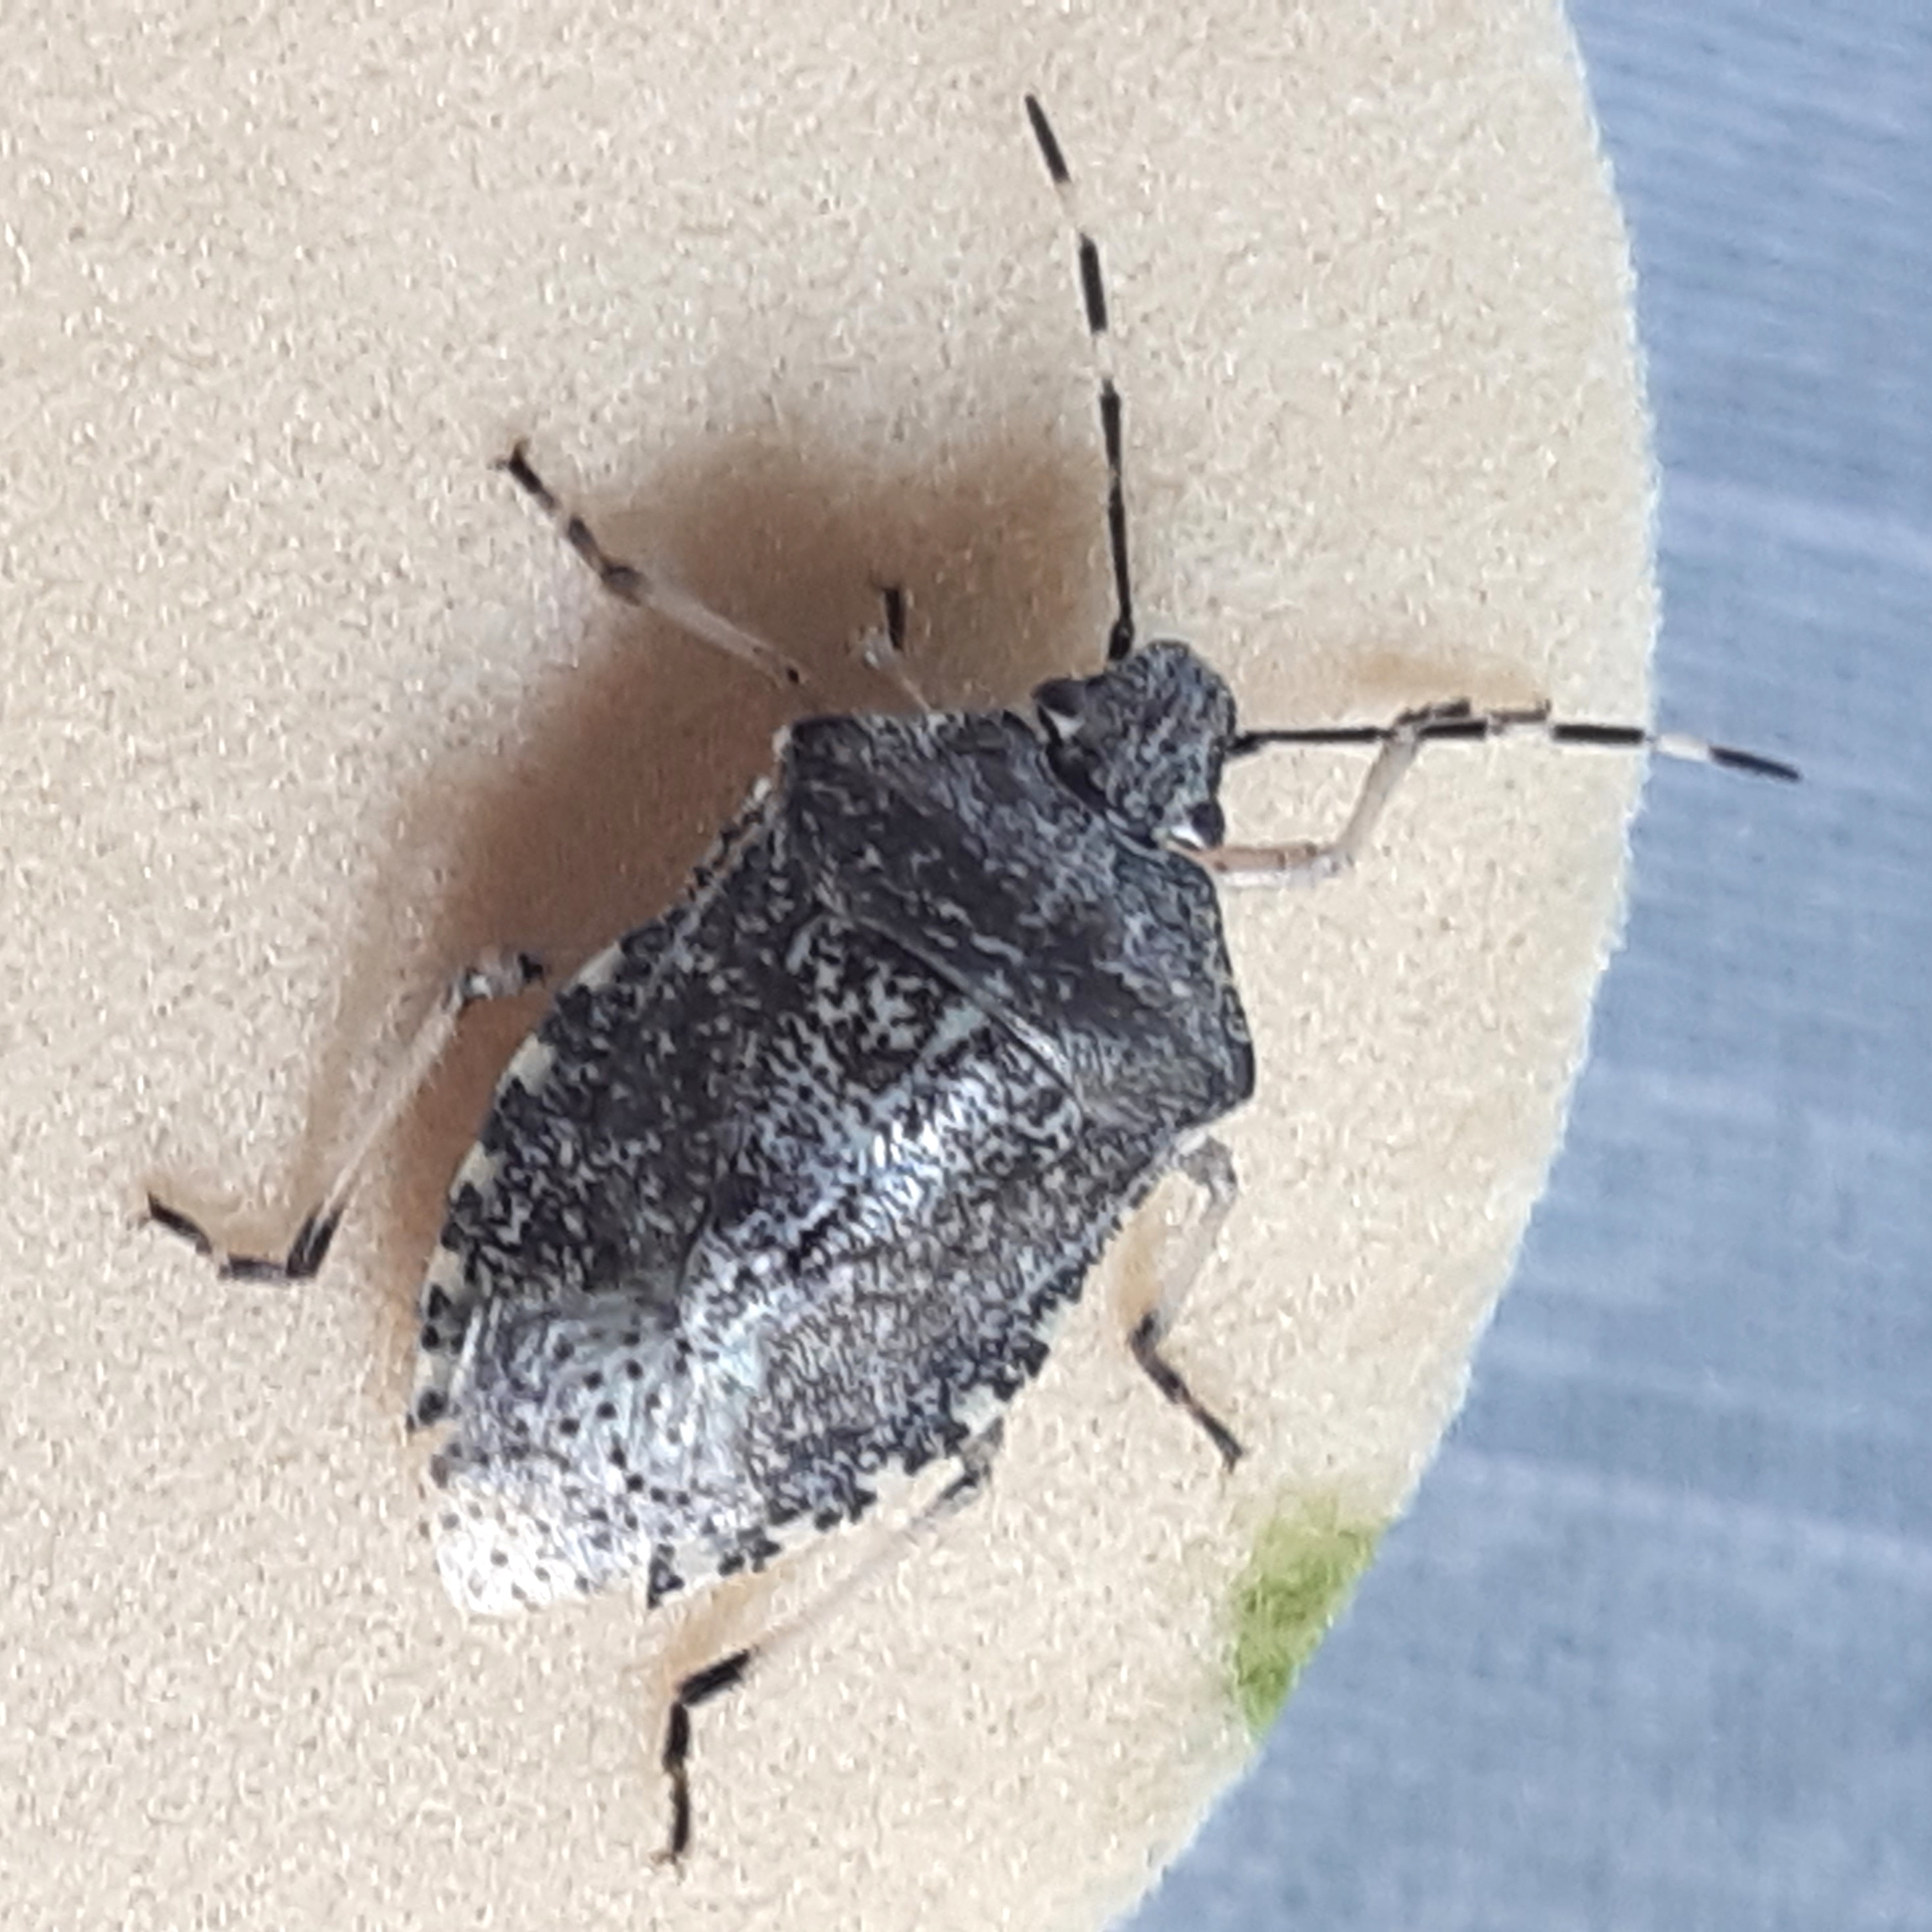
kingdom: Animalia
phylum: Arthropoda
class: Insecta
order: Hemiptera
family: Pentatomidae
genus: Rhaphigaster
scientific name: Rhaphigaster nebulosa
